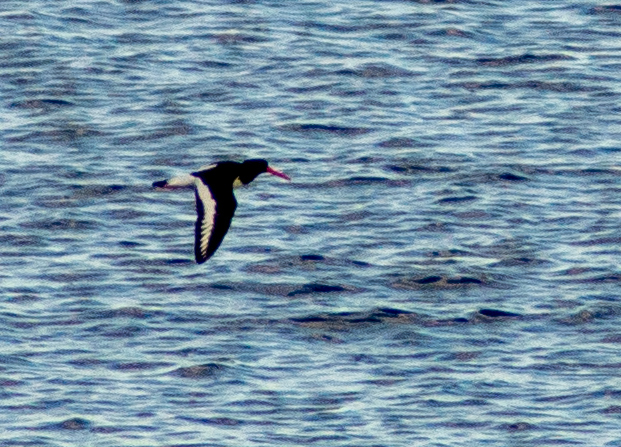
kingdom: Animalia
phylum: Chordata
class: Aves
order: Charadriiformes
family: Haematopodidae
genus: Haematopus
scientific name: Haematopus ostralegus
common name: Eurasian oystercatcher
